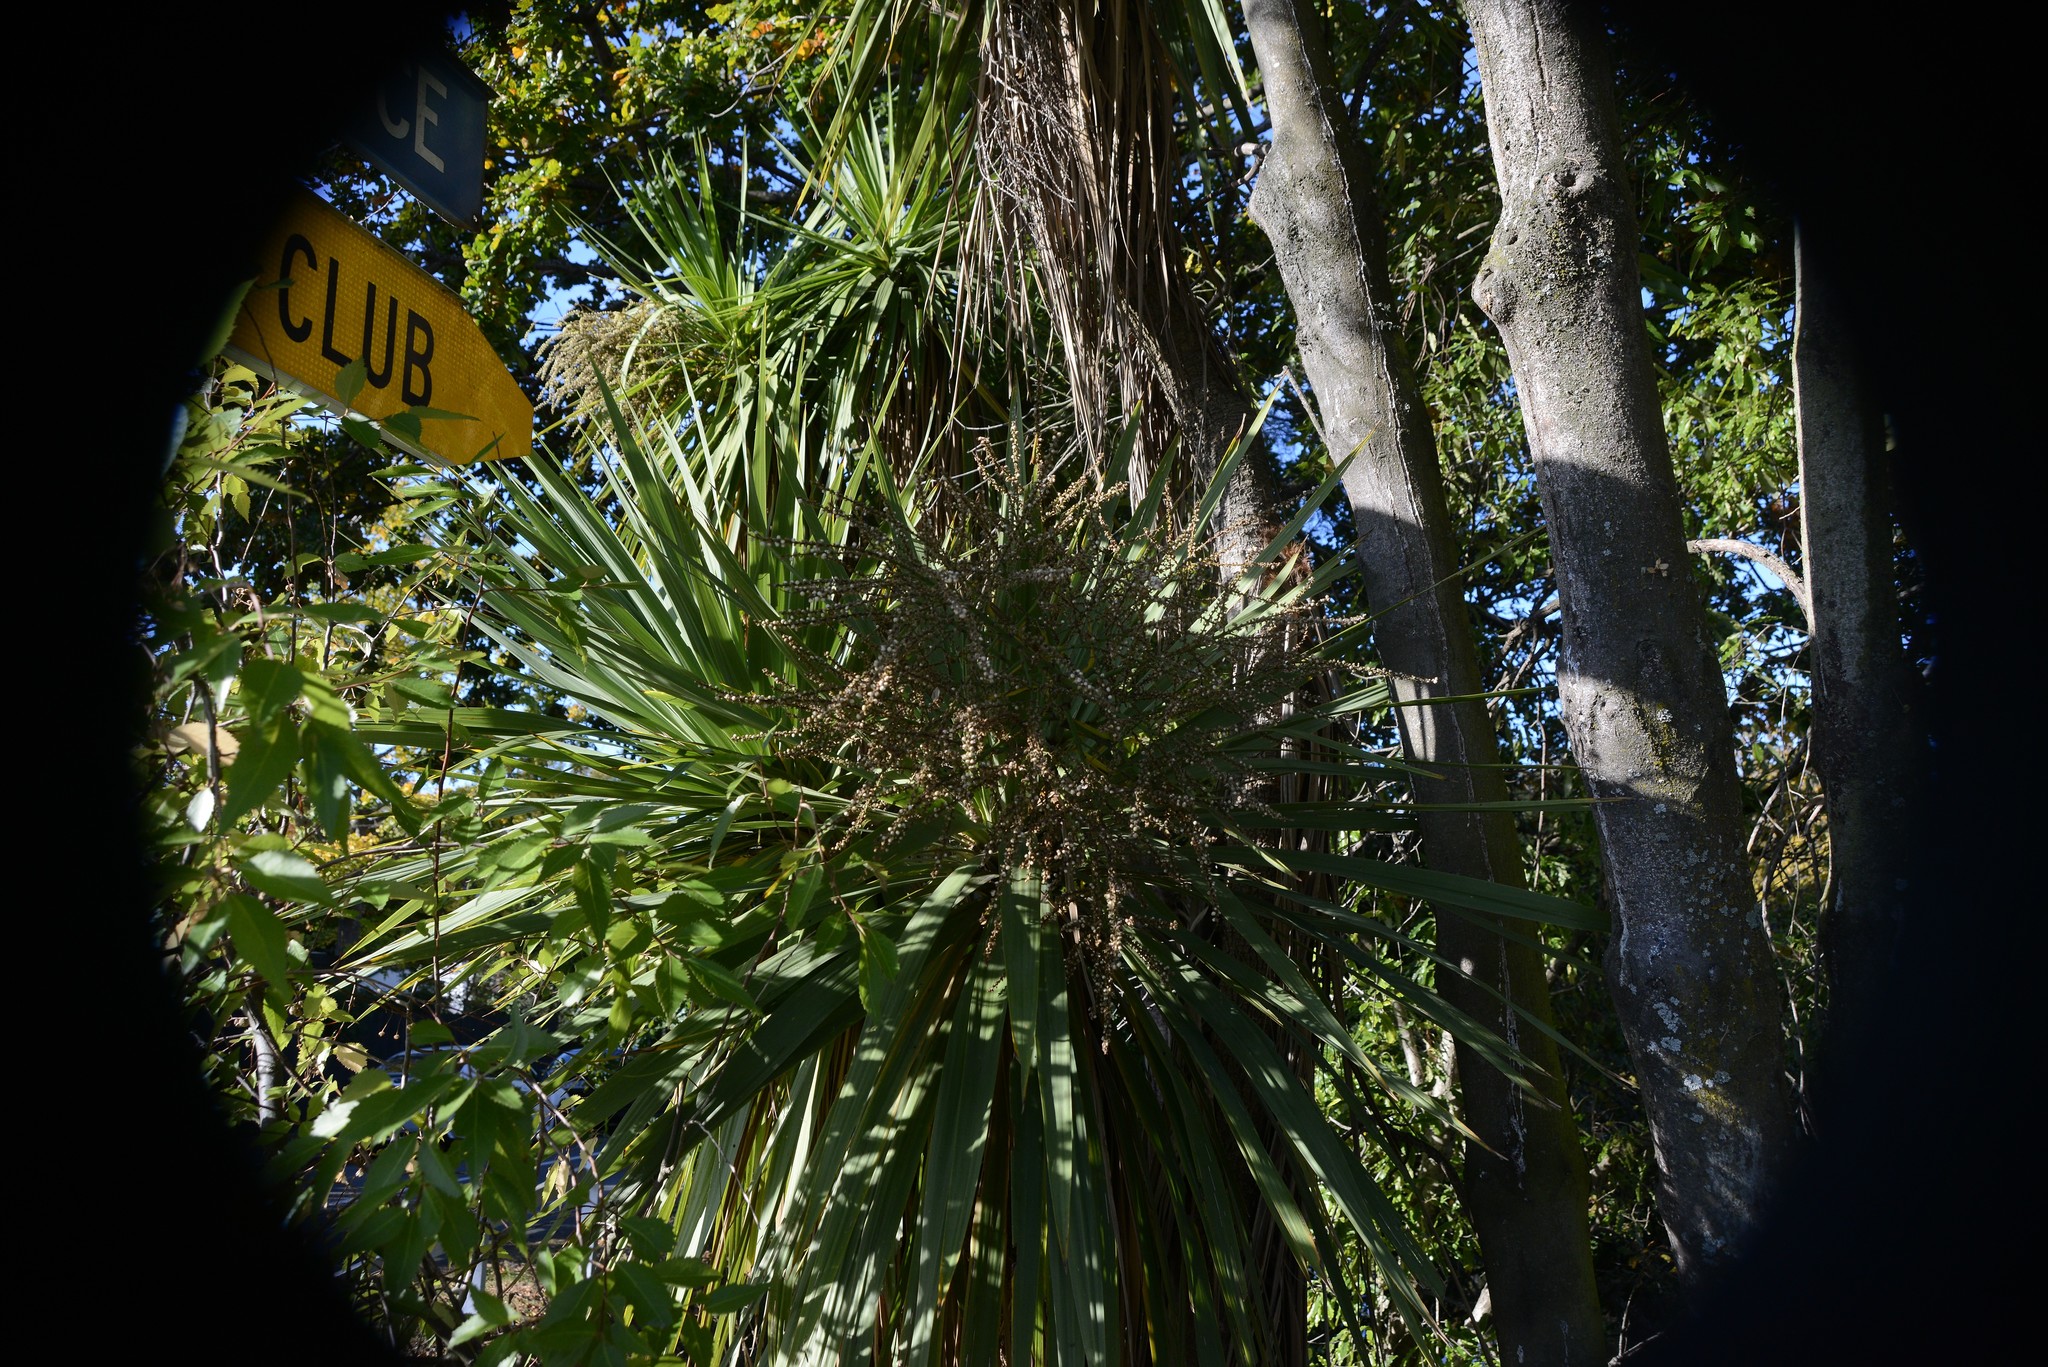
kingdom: Plantae
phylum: Tracheophyta
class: Liliopsida
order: Asparagales
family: Asparagaceae
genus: Cordyline
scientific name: Cordyline australis
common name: Cabbage-palm
